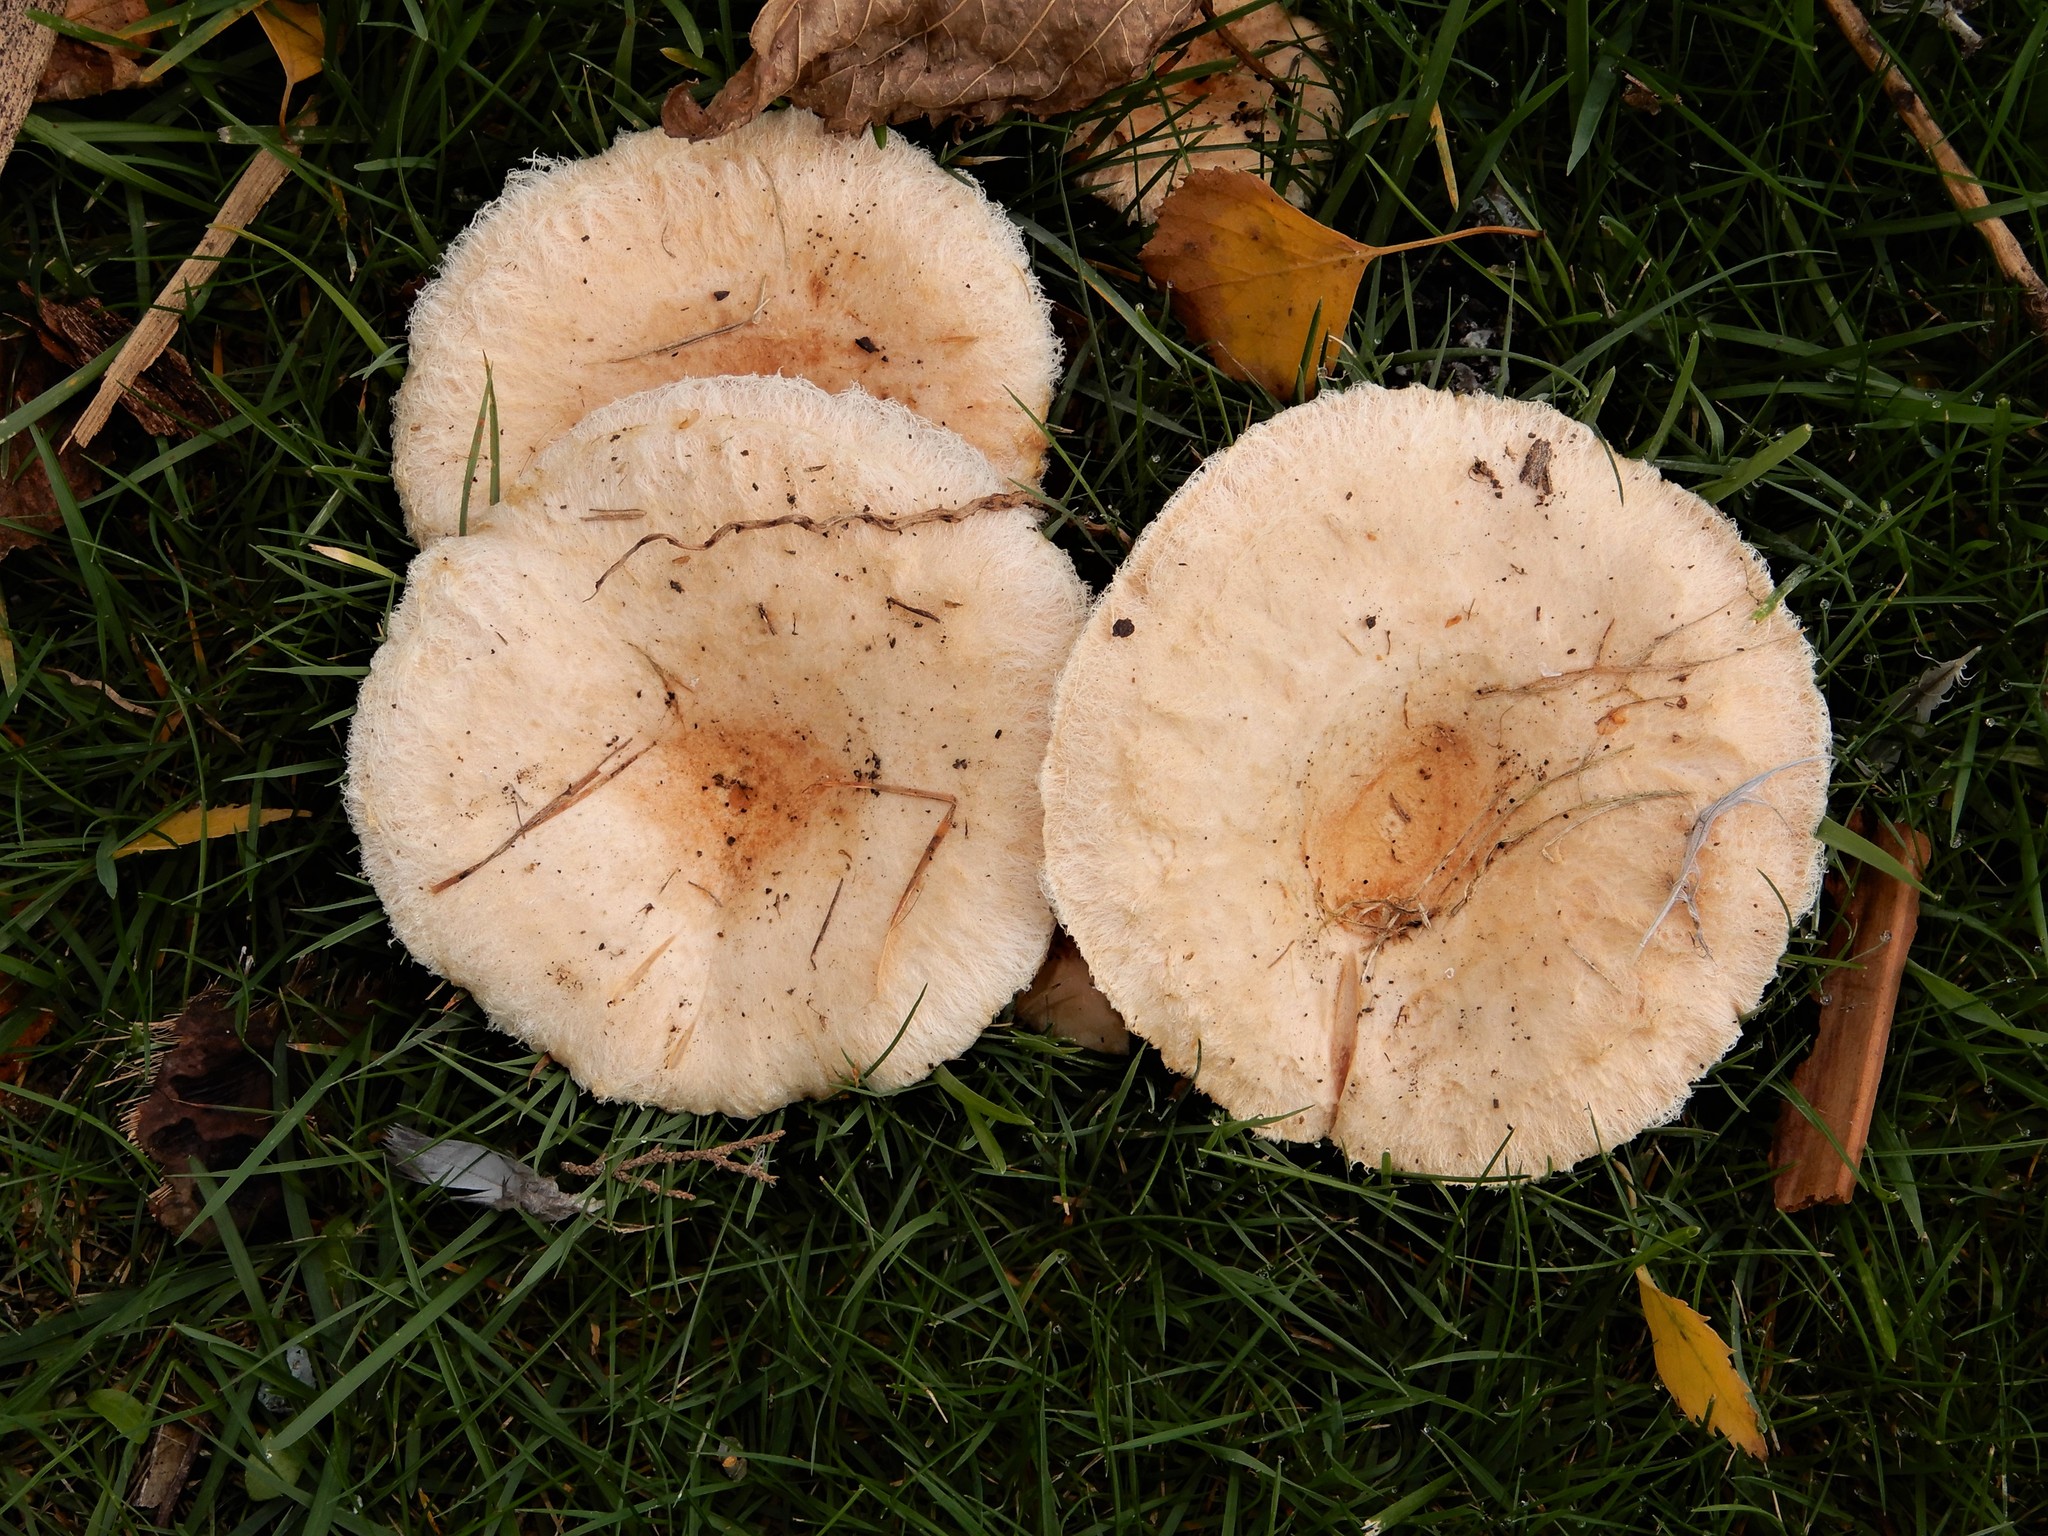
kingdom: Fungi
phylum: Basidiomycota
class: Agaricomycetes
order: Russulales
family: Russulaceae
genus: Lactarius
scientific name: Lactarius pubescens
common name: Bearded milkcap
